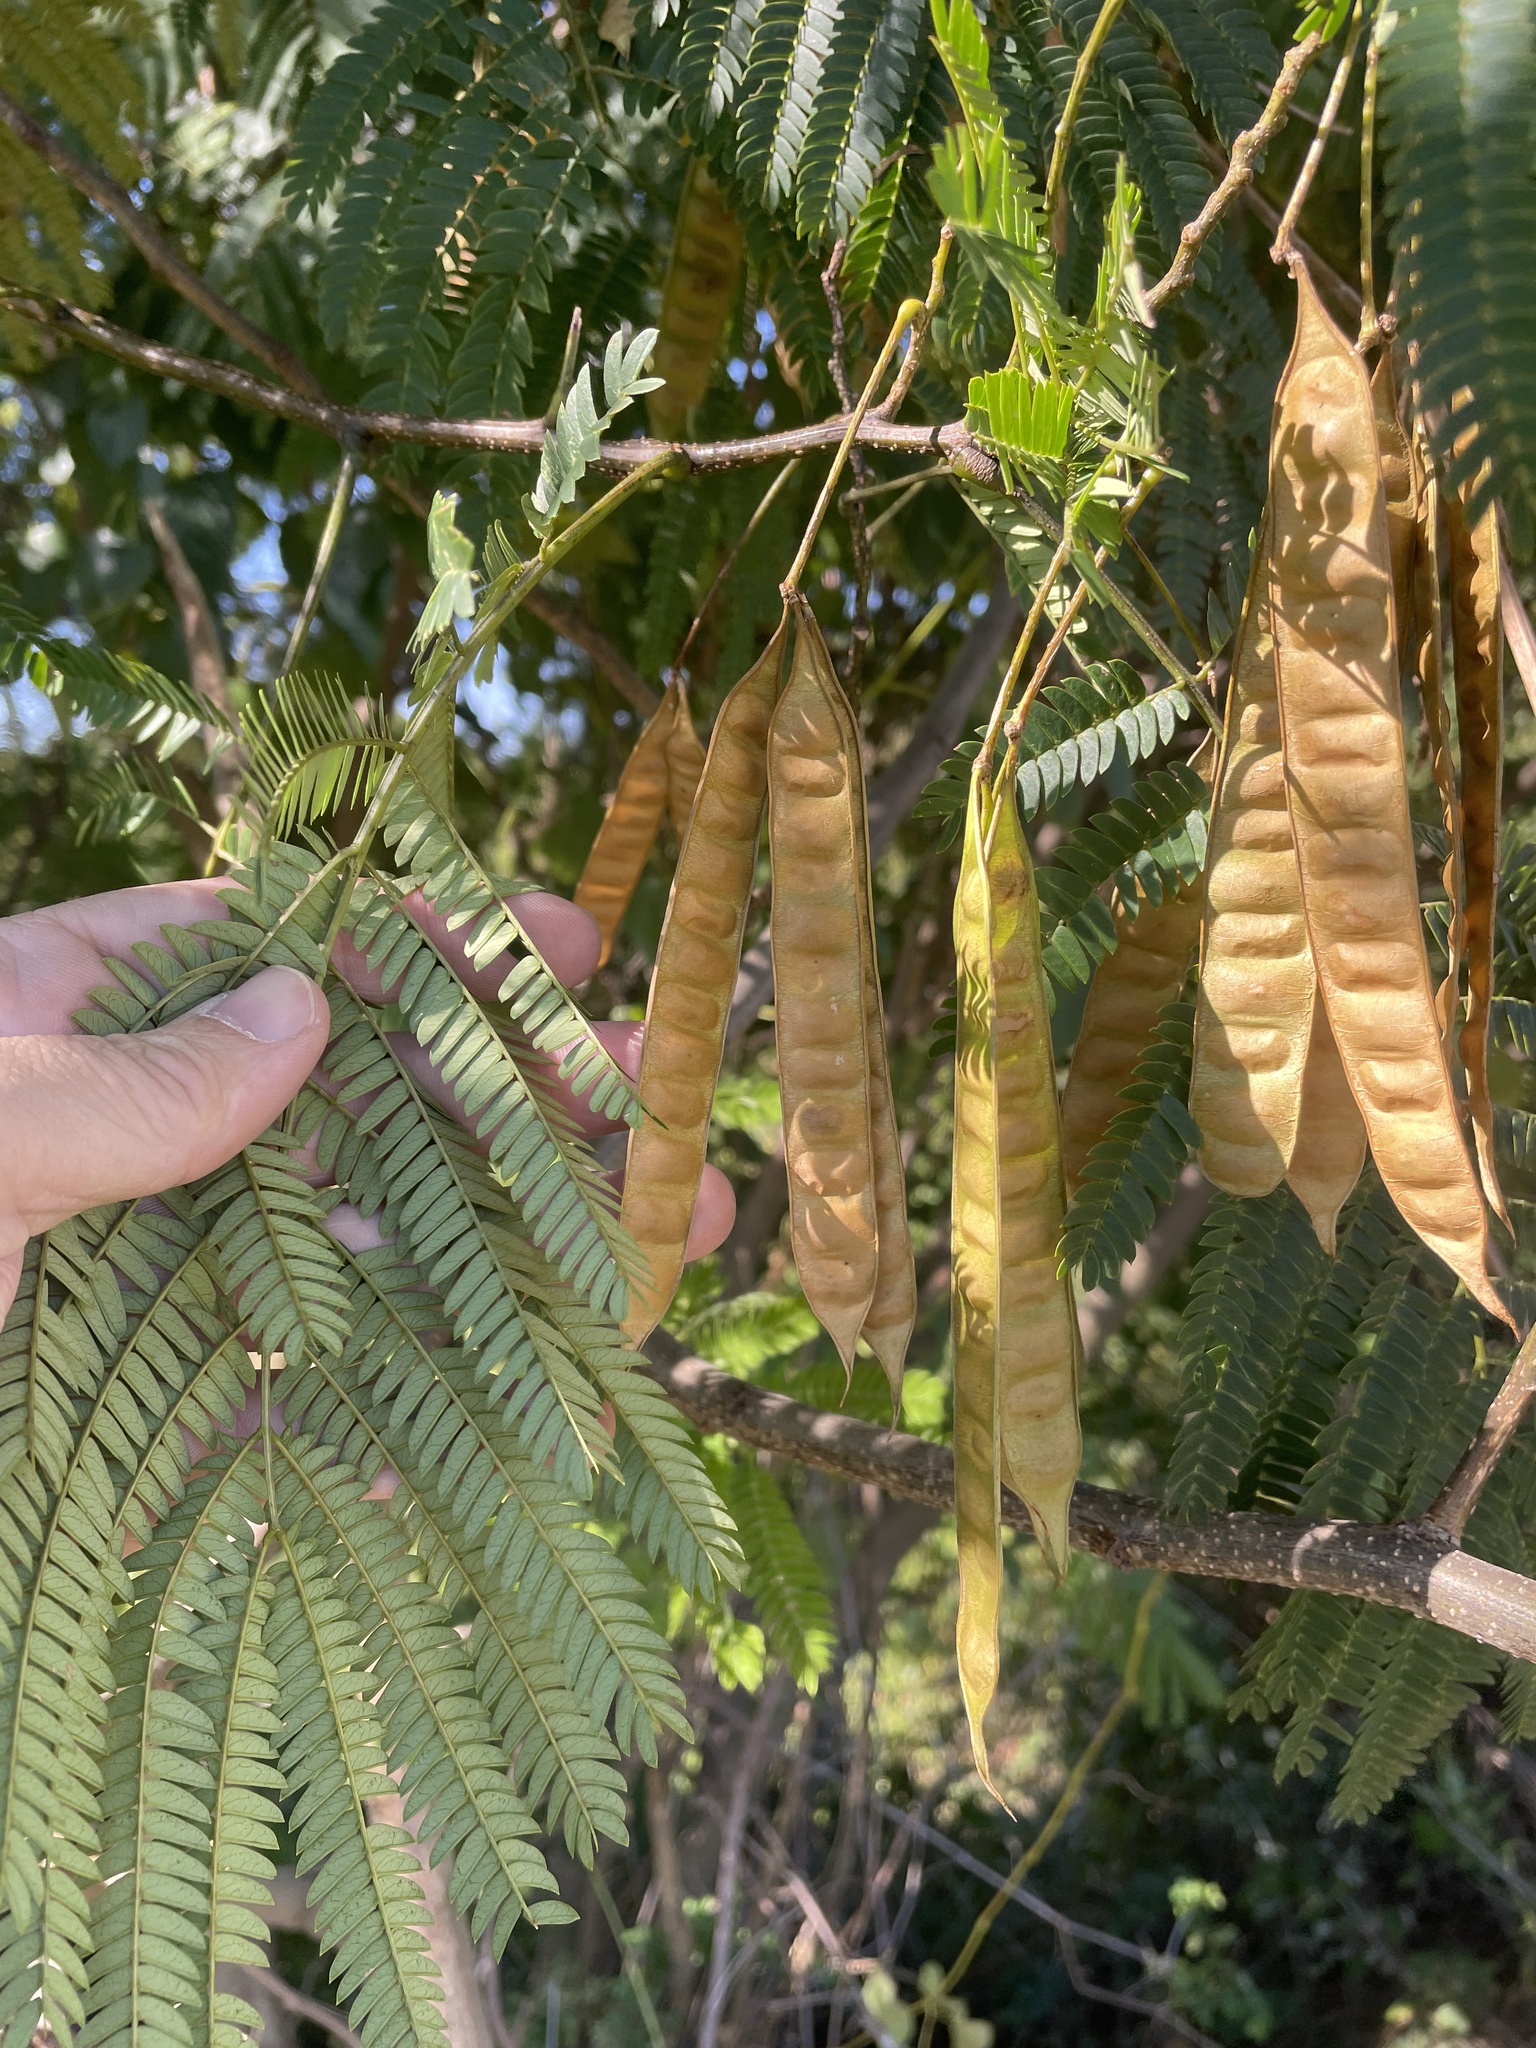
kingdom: Plantae
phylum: Tracheophyta
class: Magnoliopsida
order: Fabales
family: Fabaceae
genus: Albizia
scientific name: Albizia julibrissin
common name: Silktree
